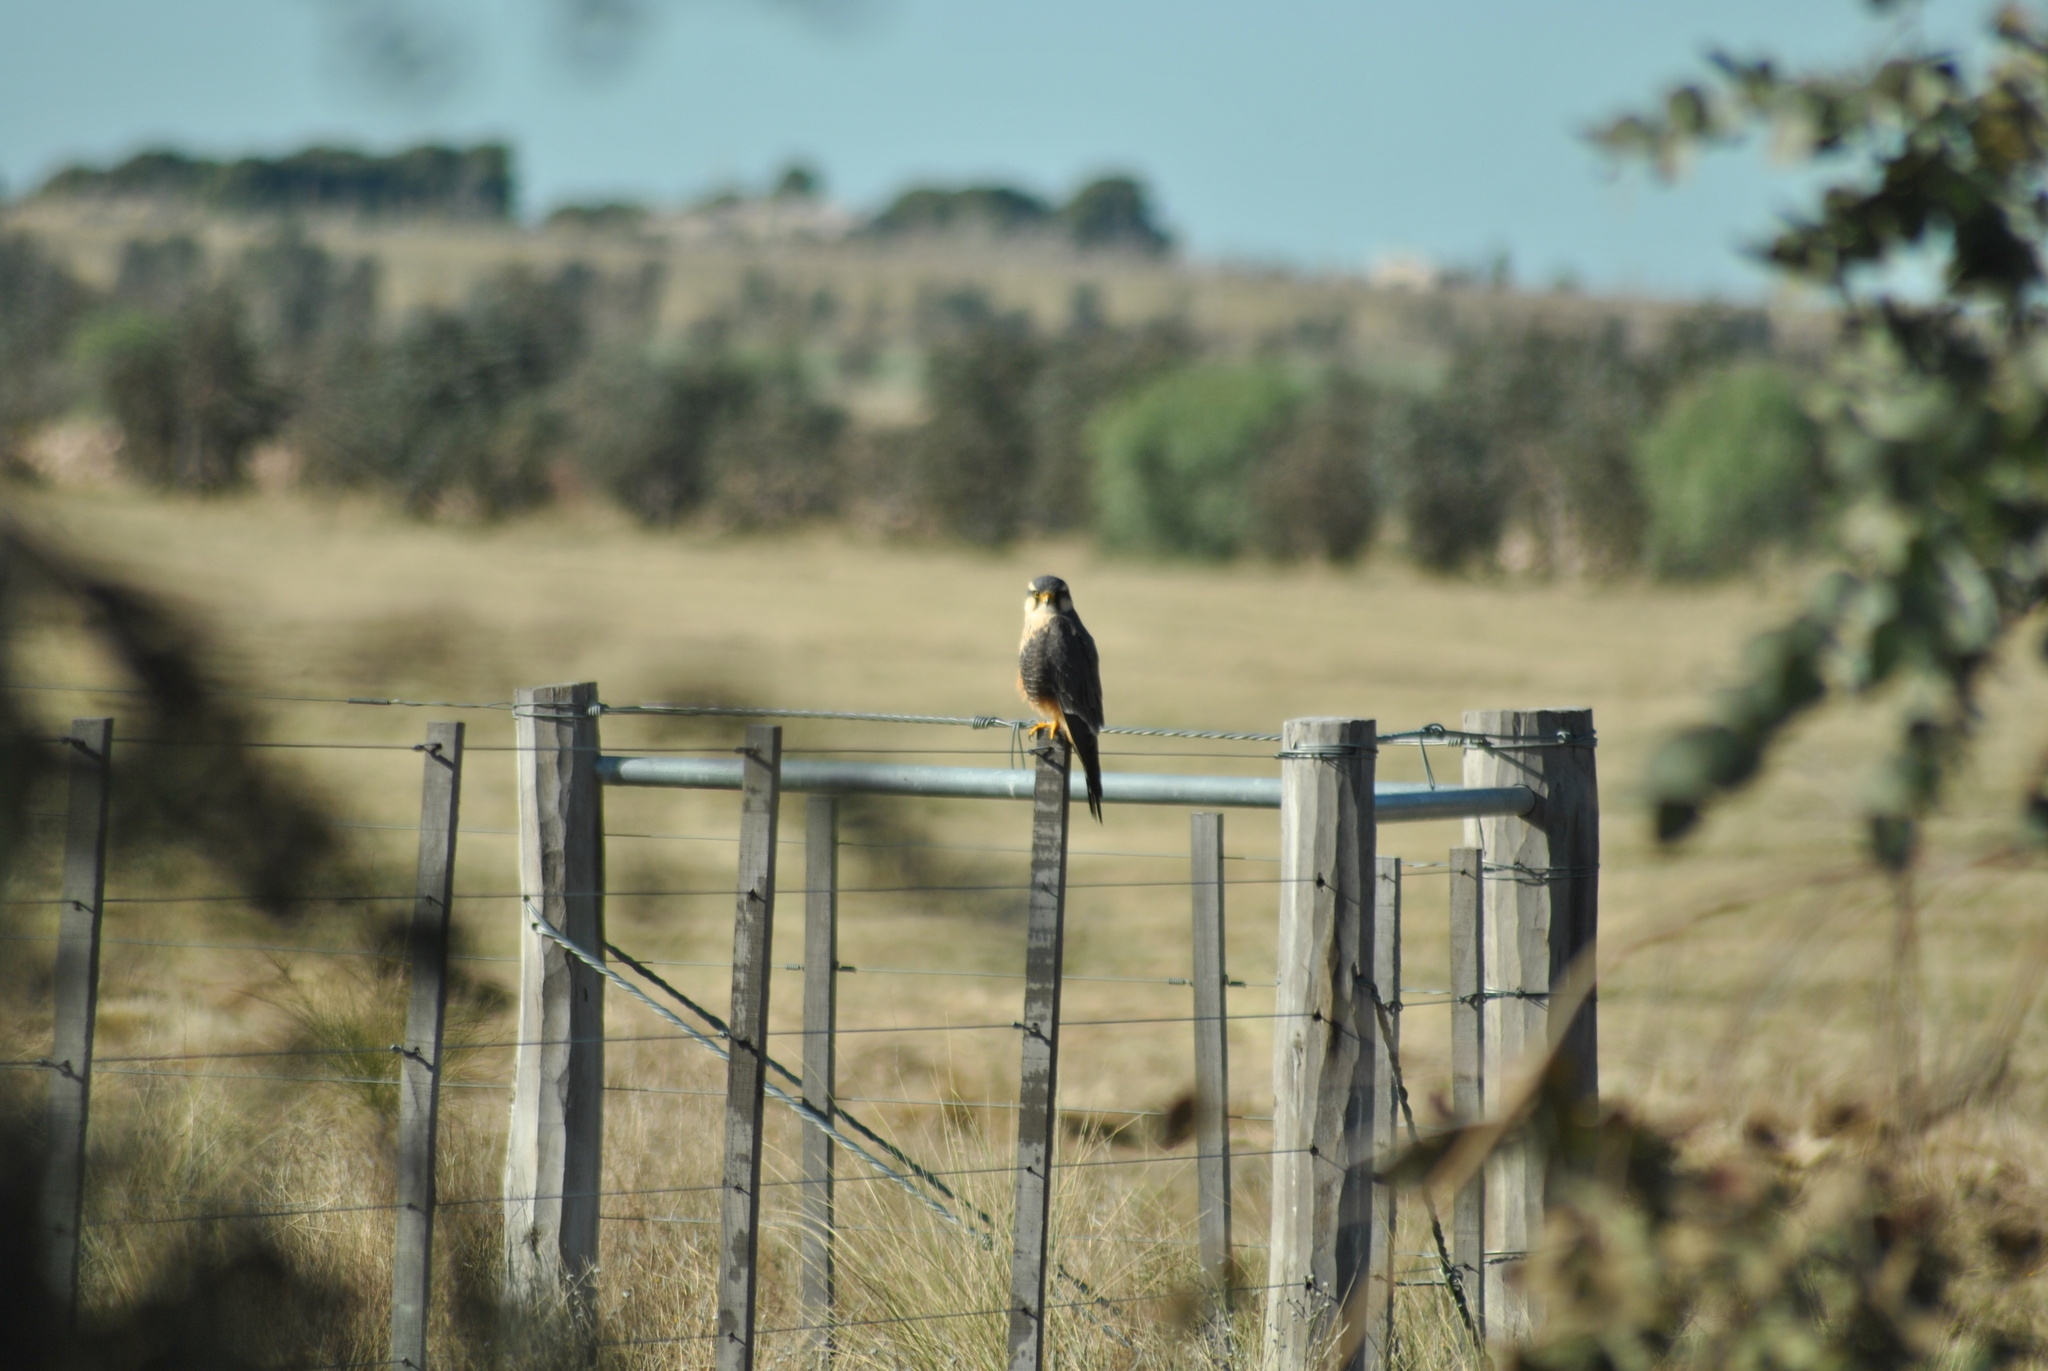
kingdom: Animalia
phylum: Chordata
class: Aves
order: Falconiformes
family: Falconidae
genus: Falco
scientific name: Falco femoralis
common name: Aplomado falcon
